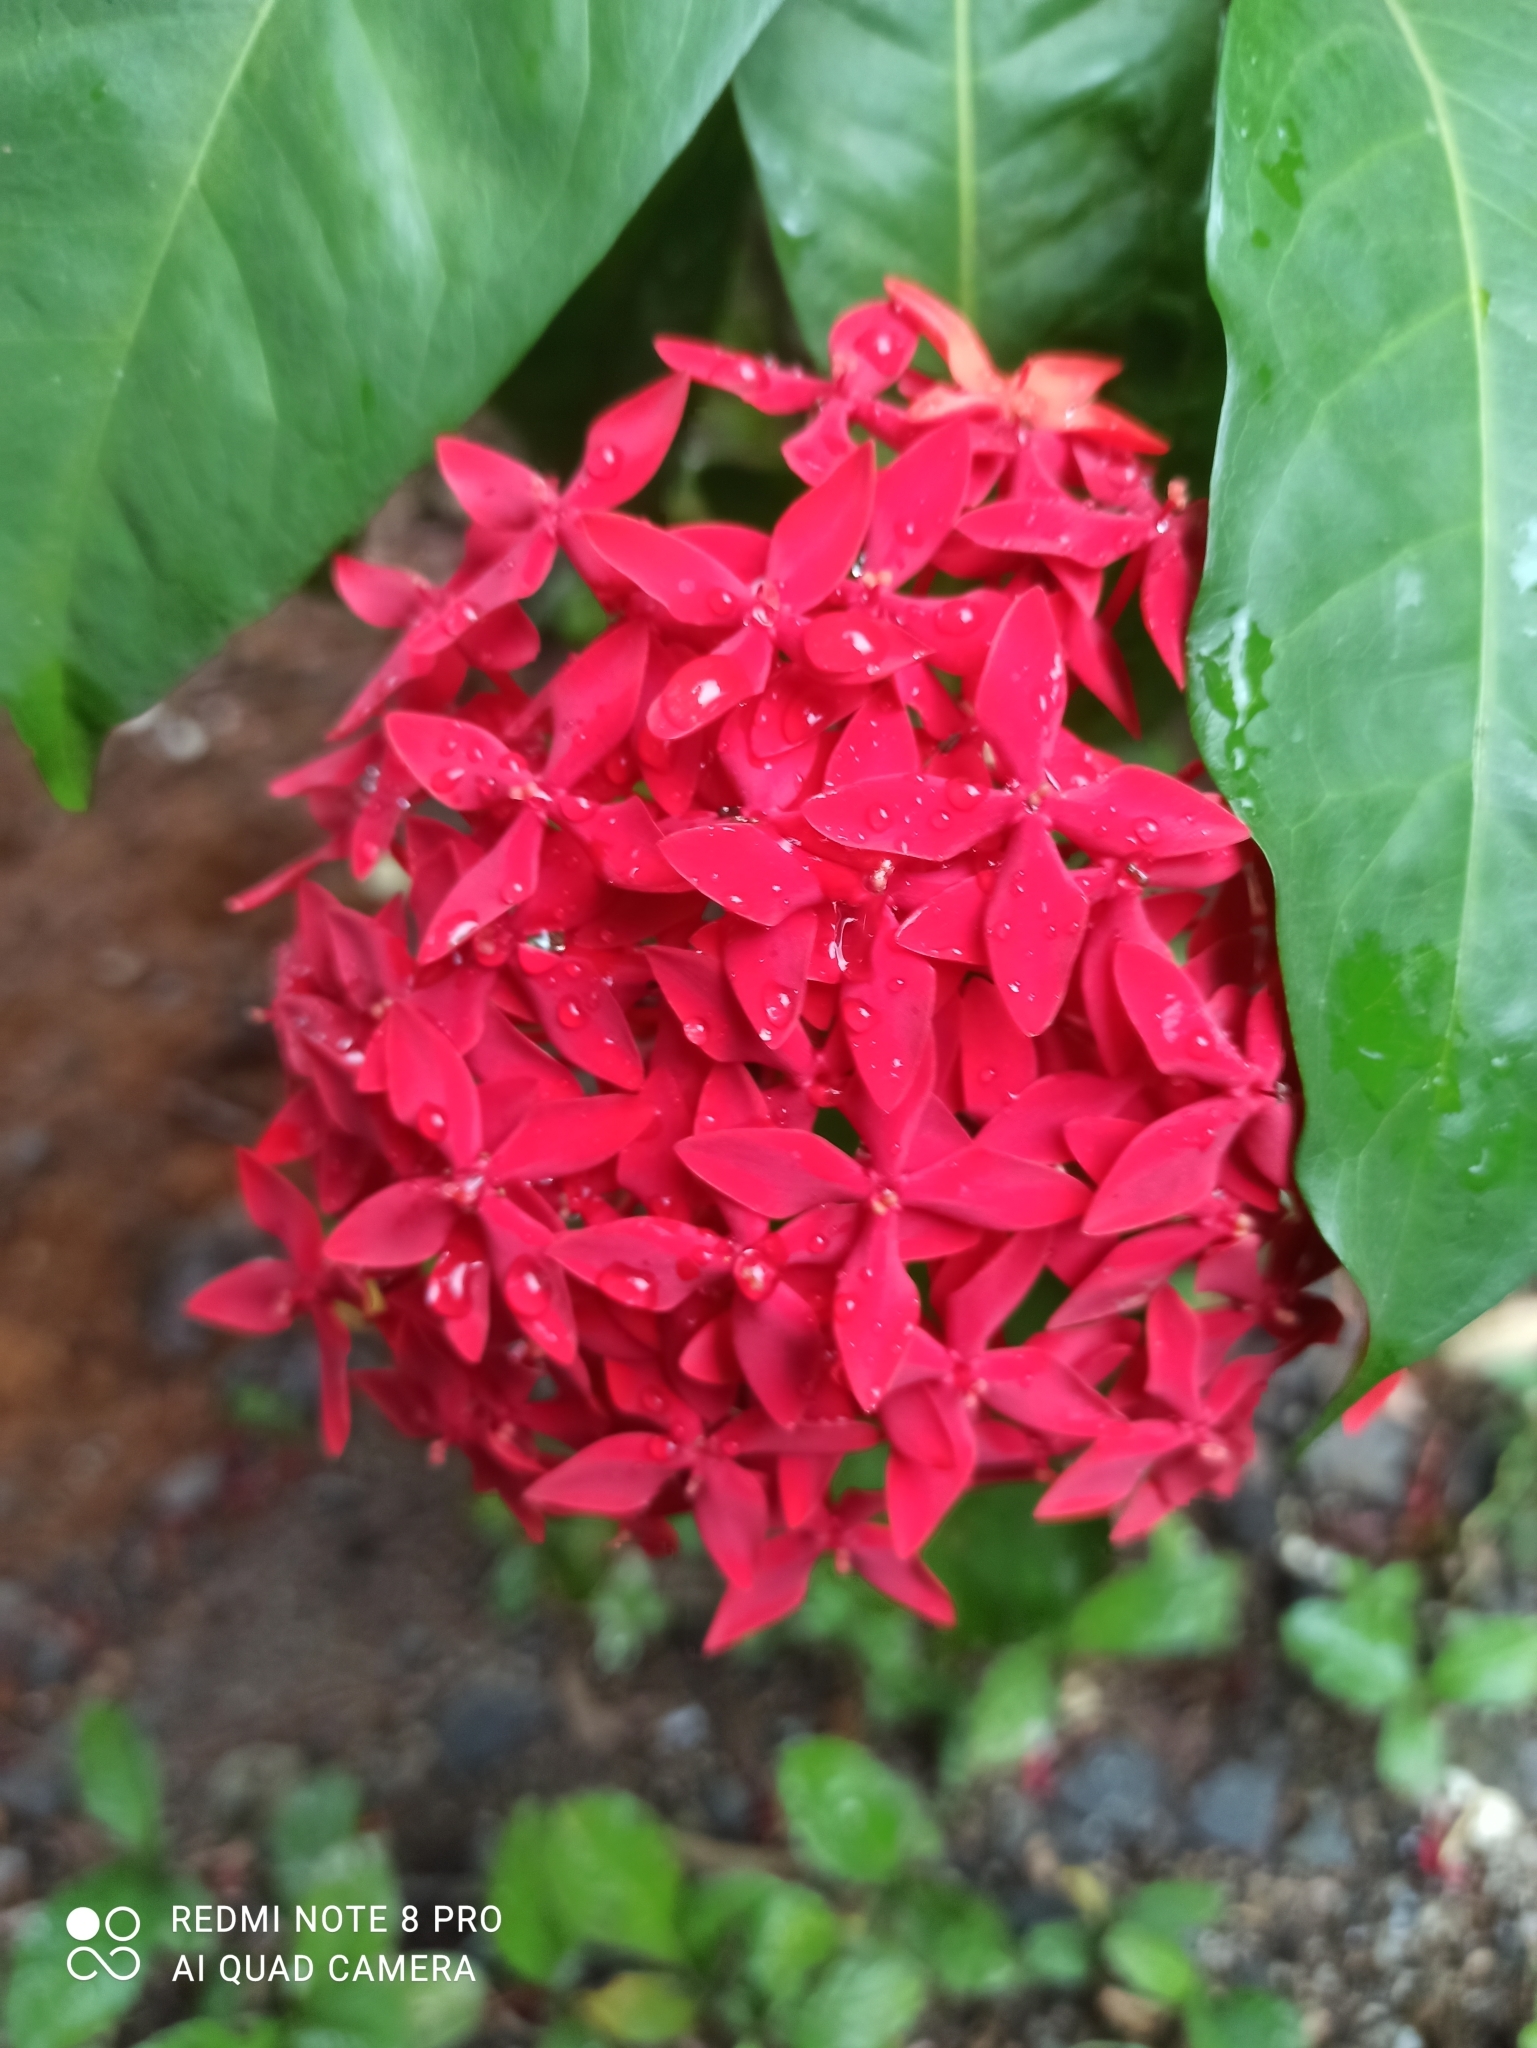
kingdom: Plantae
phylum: Tracheophyta
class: Magnoliopsida
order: Gentianales
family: Rubiaceae
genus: Ixora
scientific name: Ixora coccinea
